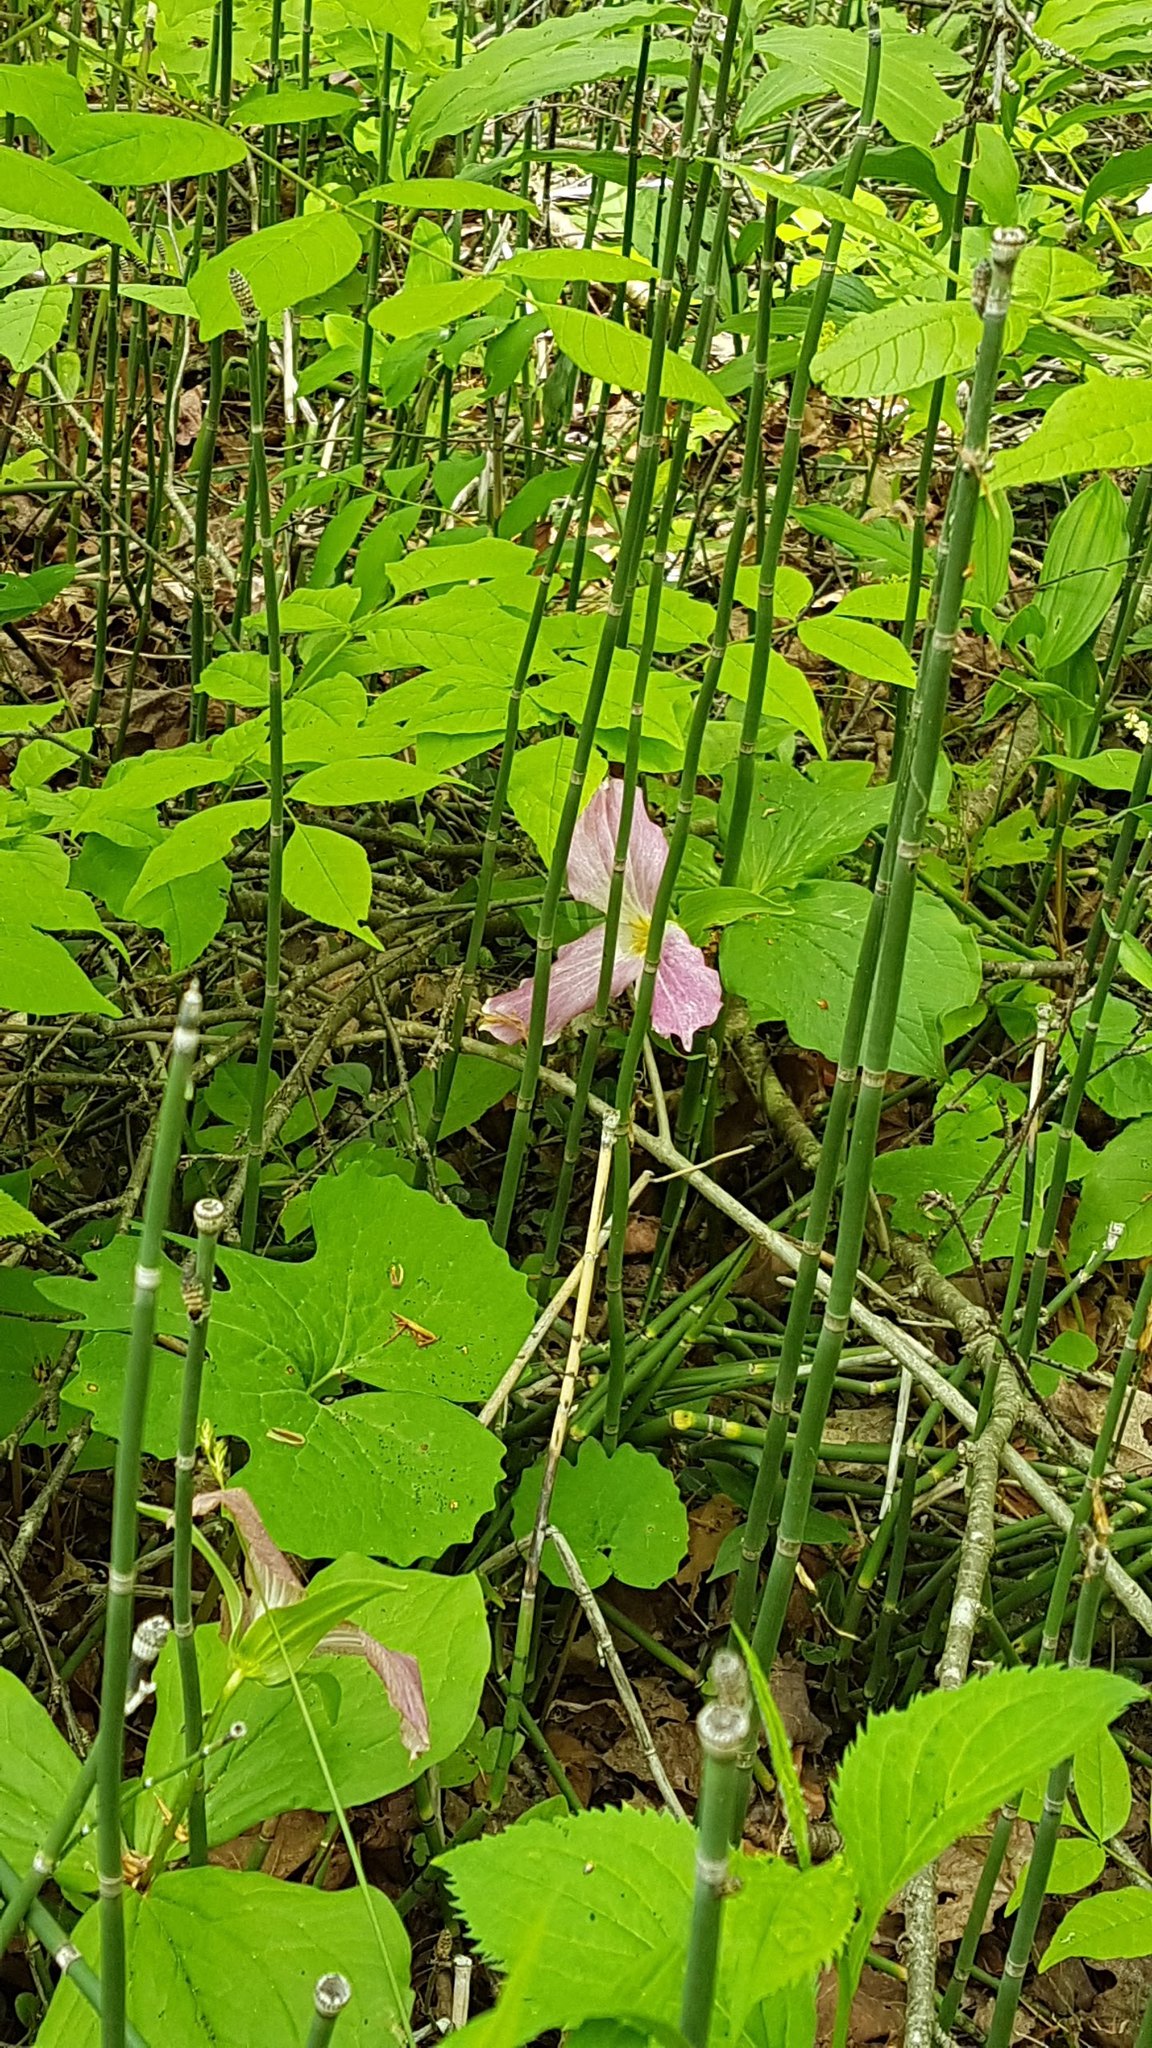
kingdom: Plantae
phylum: Tracheophyta
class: Liliopsida
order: Liliales
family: Melanthiaceae
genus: Trillium
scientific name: Trillium grandiflorum
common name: Great white trillium
